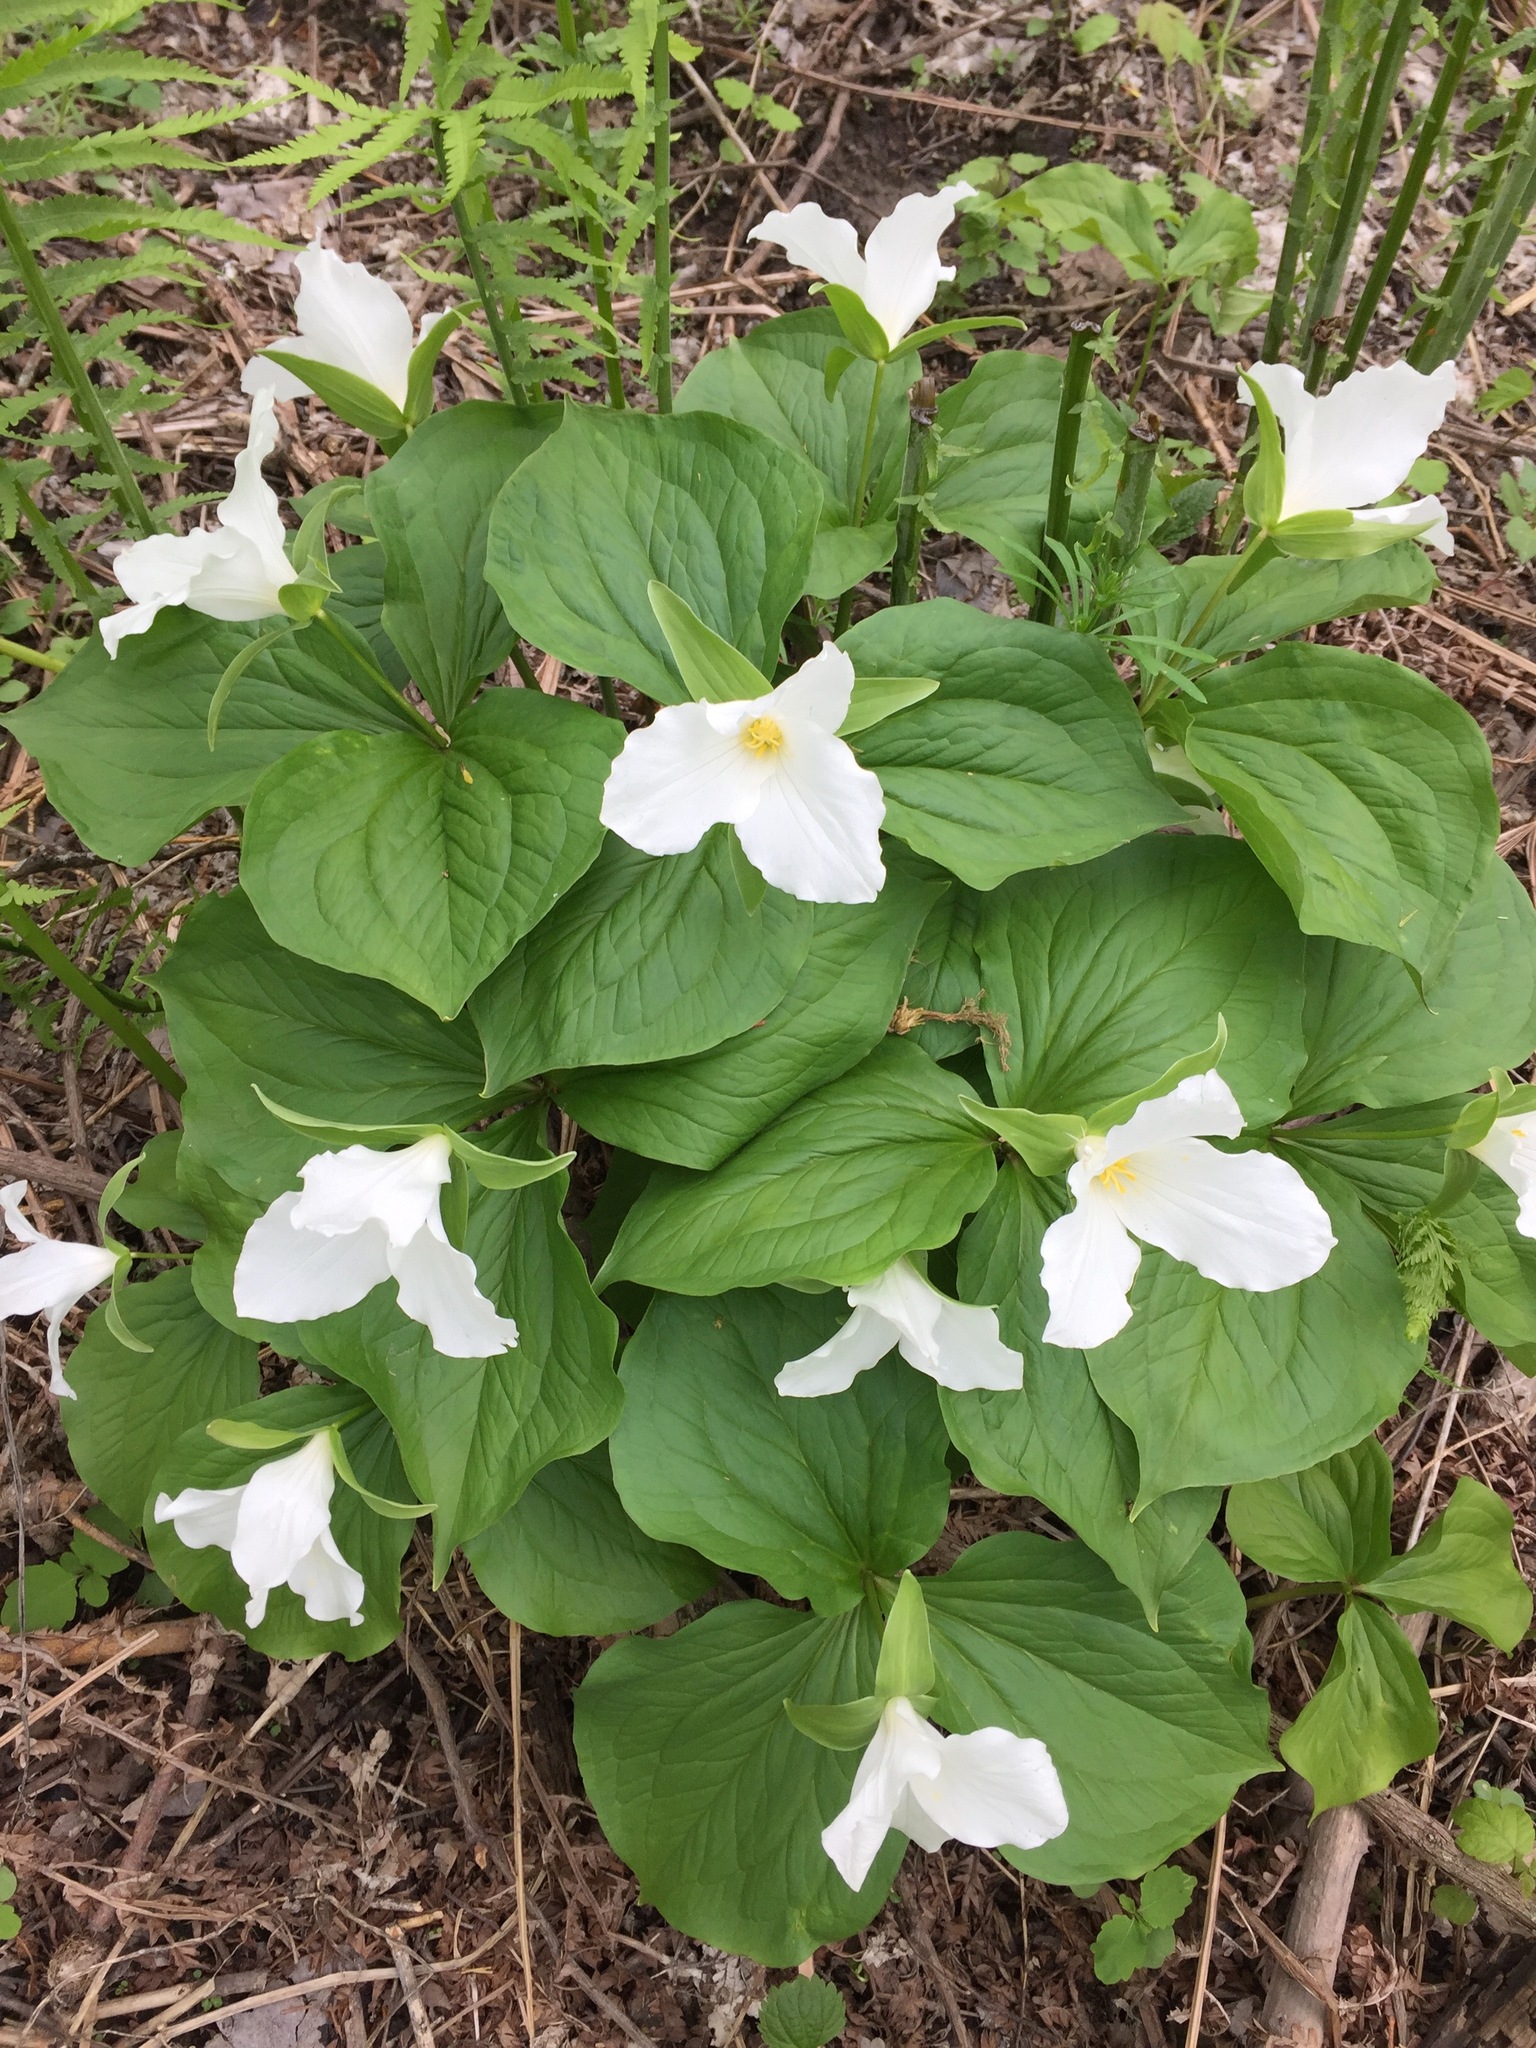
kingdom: Plantae
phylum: Tracheophyta
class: Liliopsida
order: Liliales
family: Melanthiaceae
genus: Trillium
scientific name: Trillium grandiflorum
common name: Great white trillium
